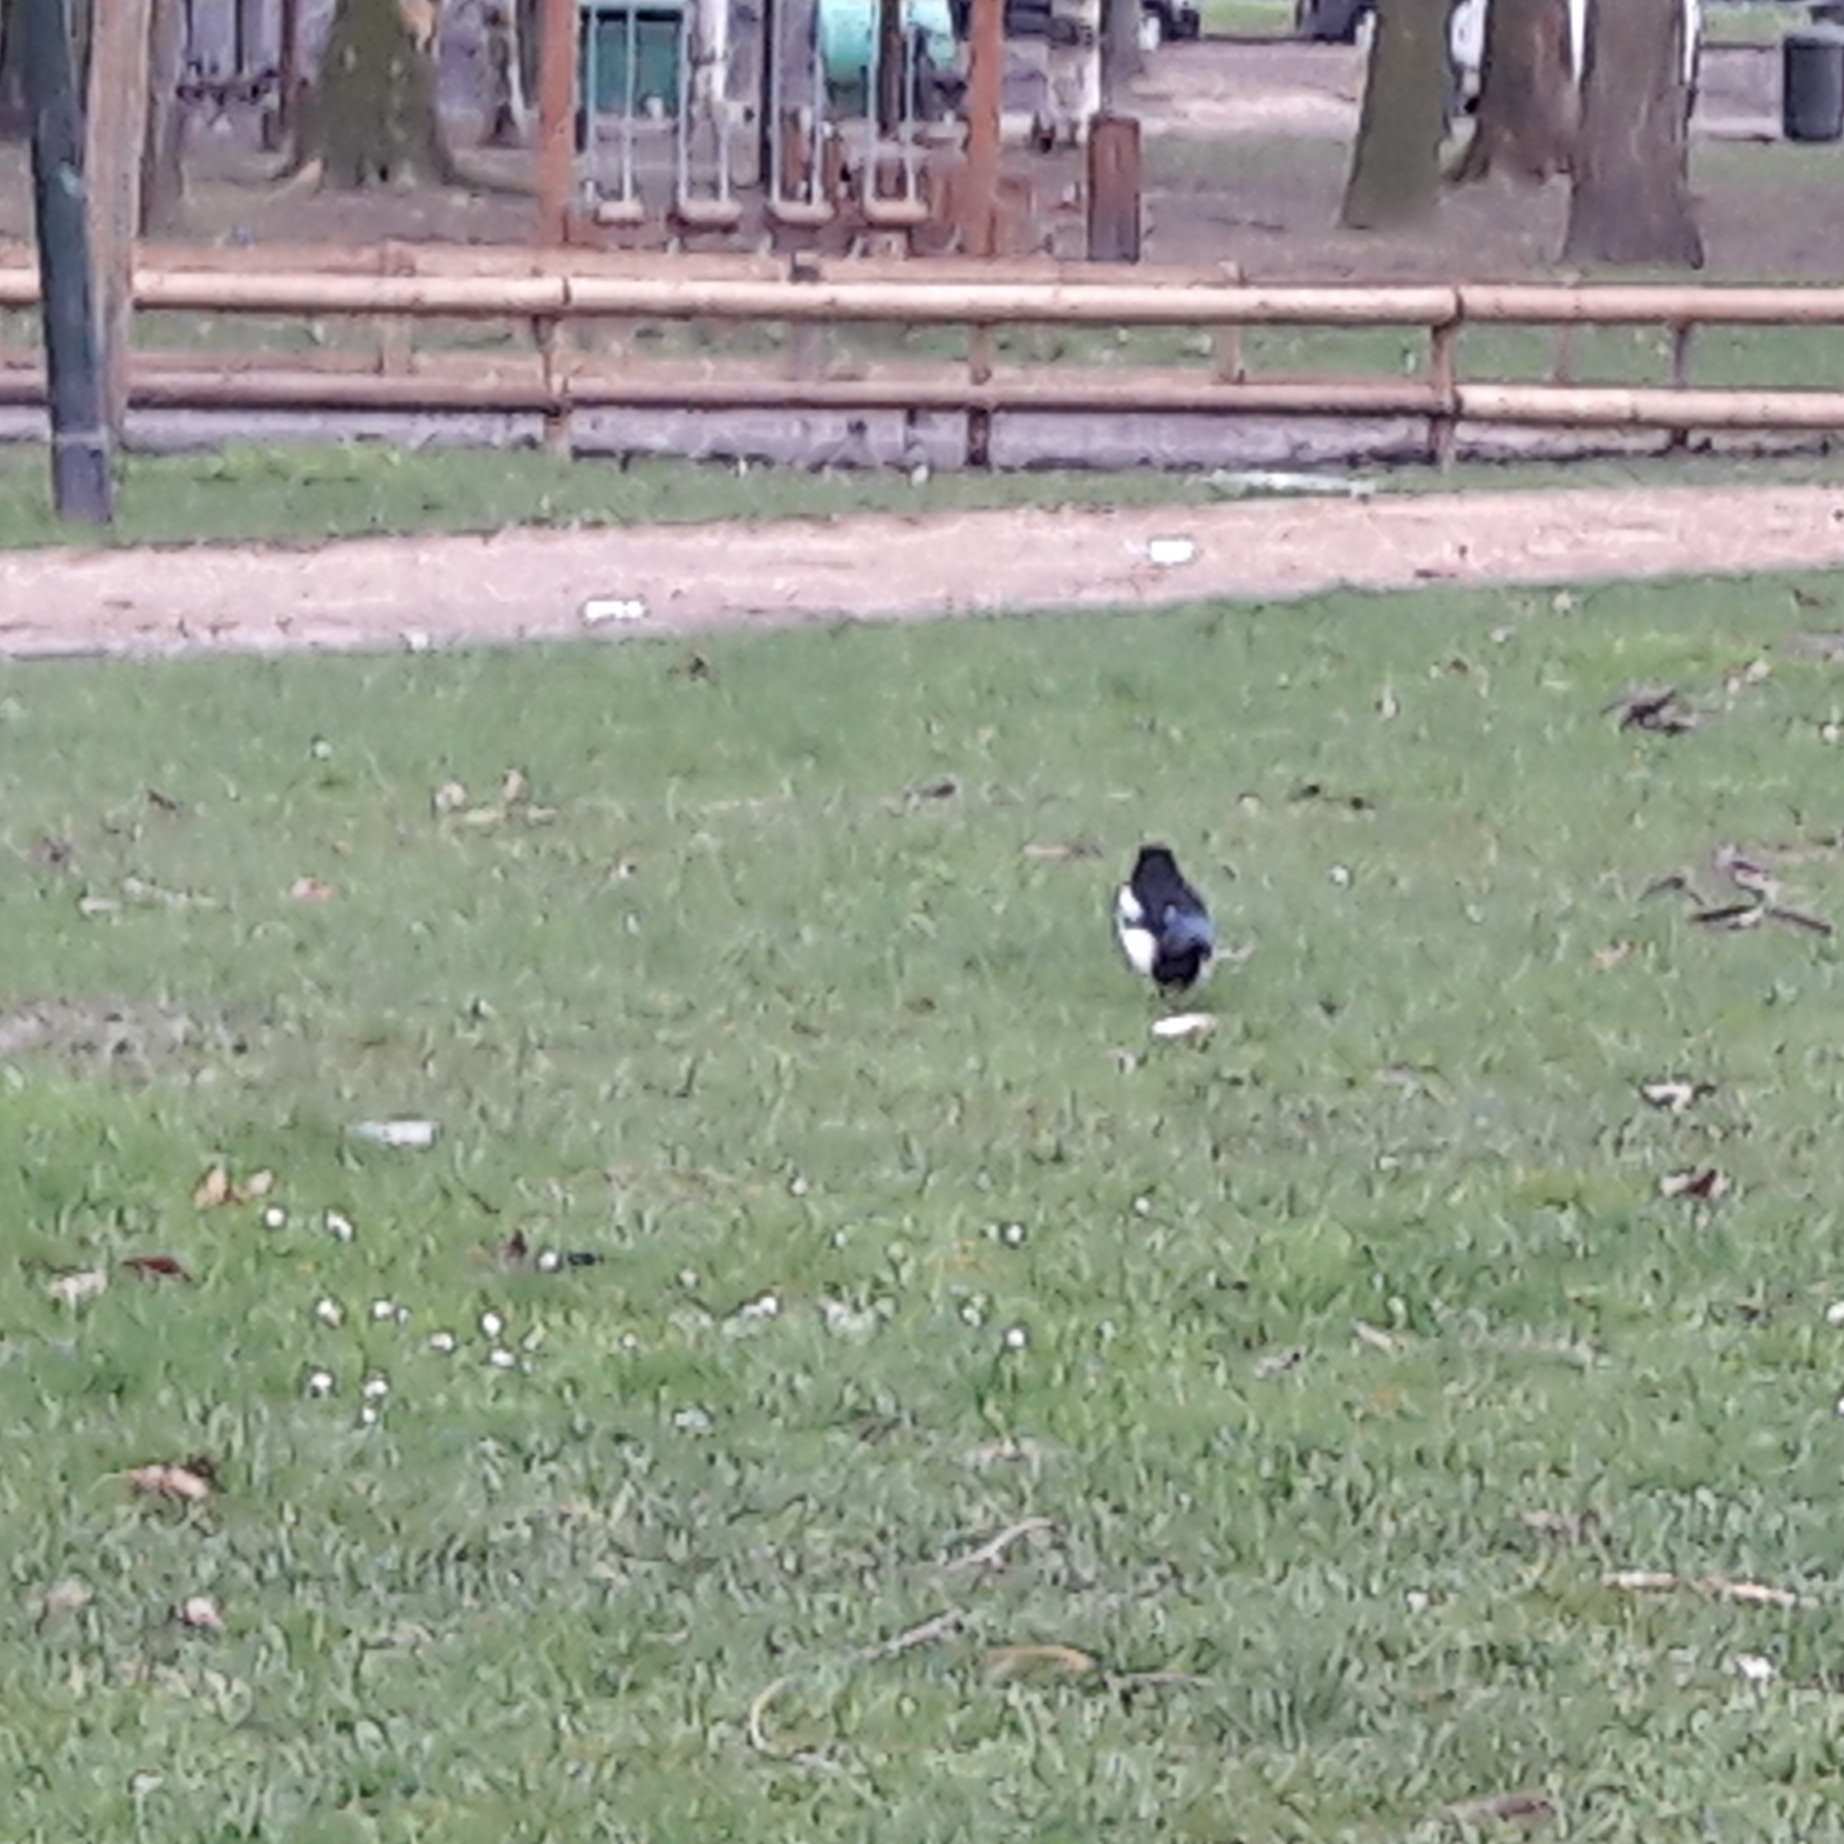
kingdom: Animalia
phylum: Chordata
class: Aves
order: Passeriformes
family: Corvidae
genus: Pica
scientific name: Pica pica
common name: Eurasian magpie
